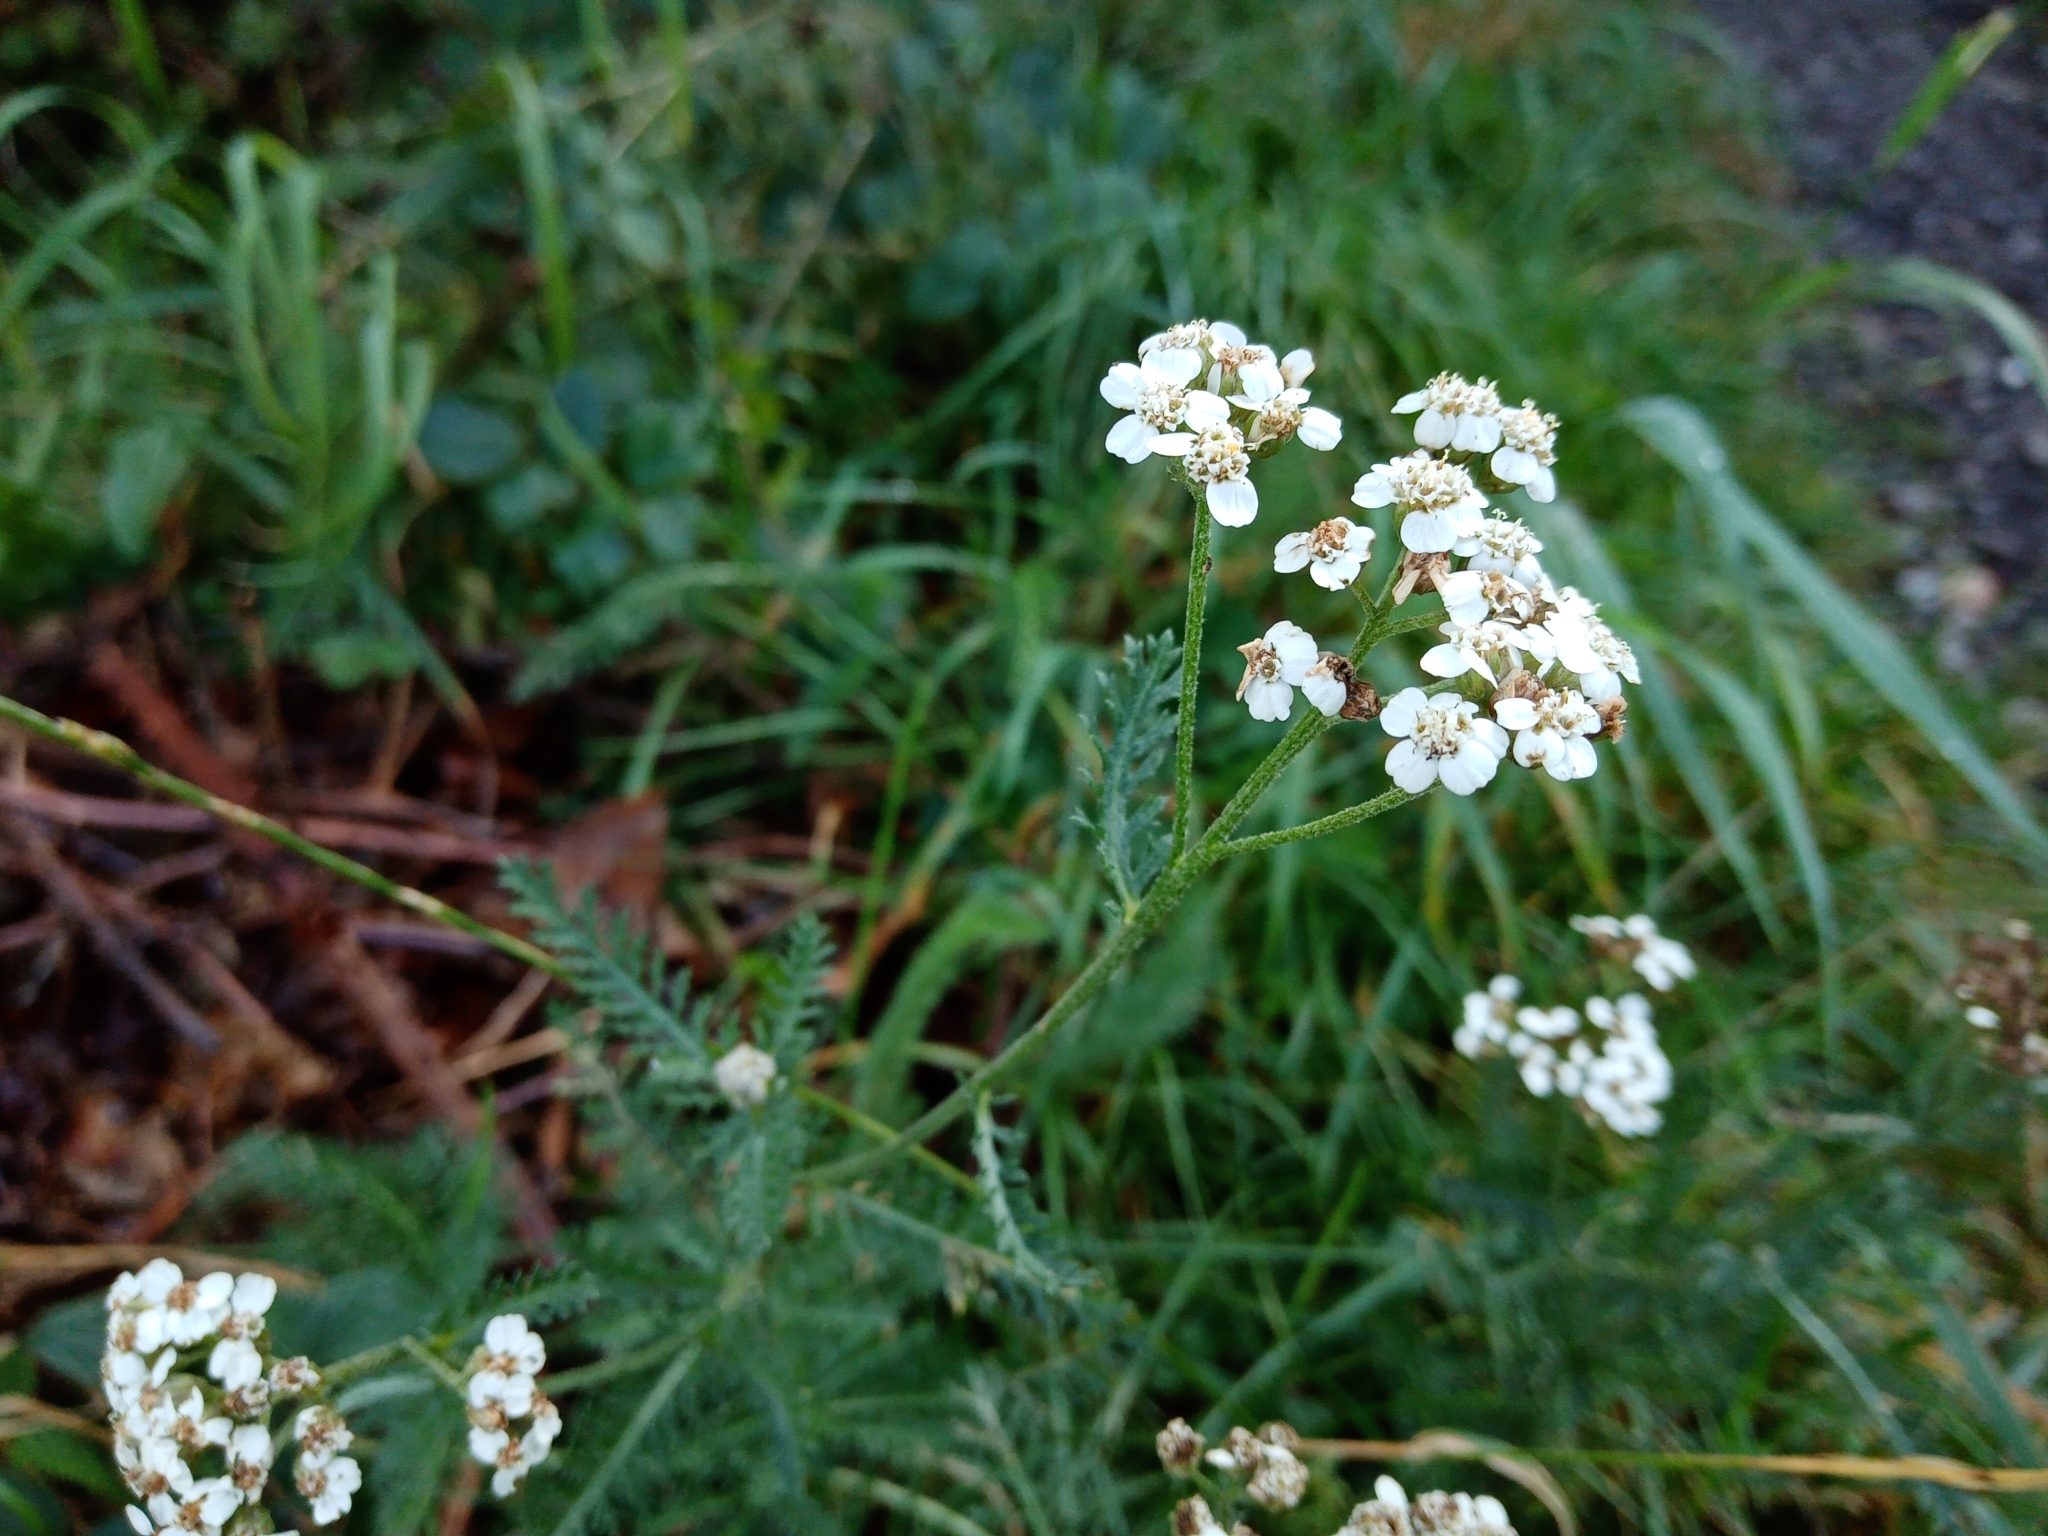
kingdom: Plantae
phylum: Tracheophyta
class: Magnoliopsida
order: Asterales
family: Asteraceae
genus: Achillea
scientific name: Achillea millefolium
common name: Yarrow
